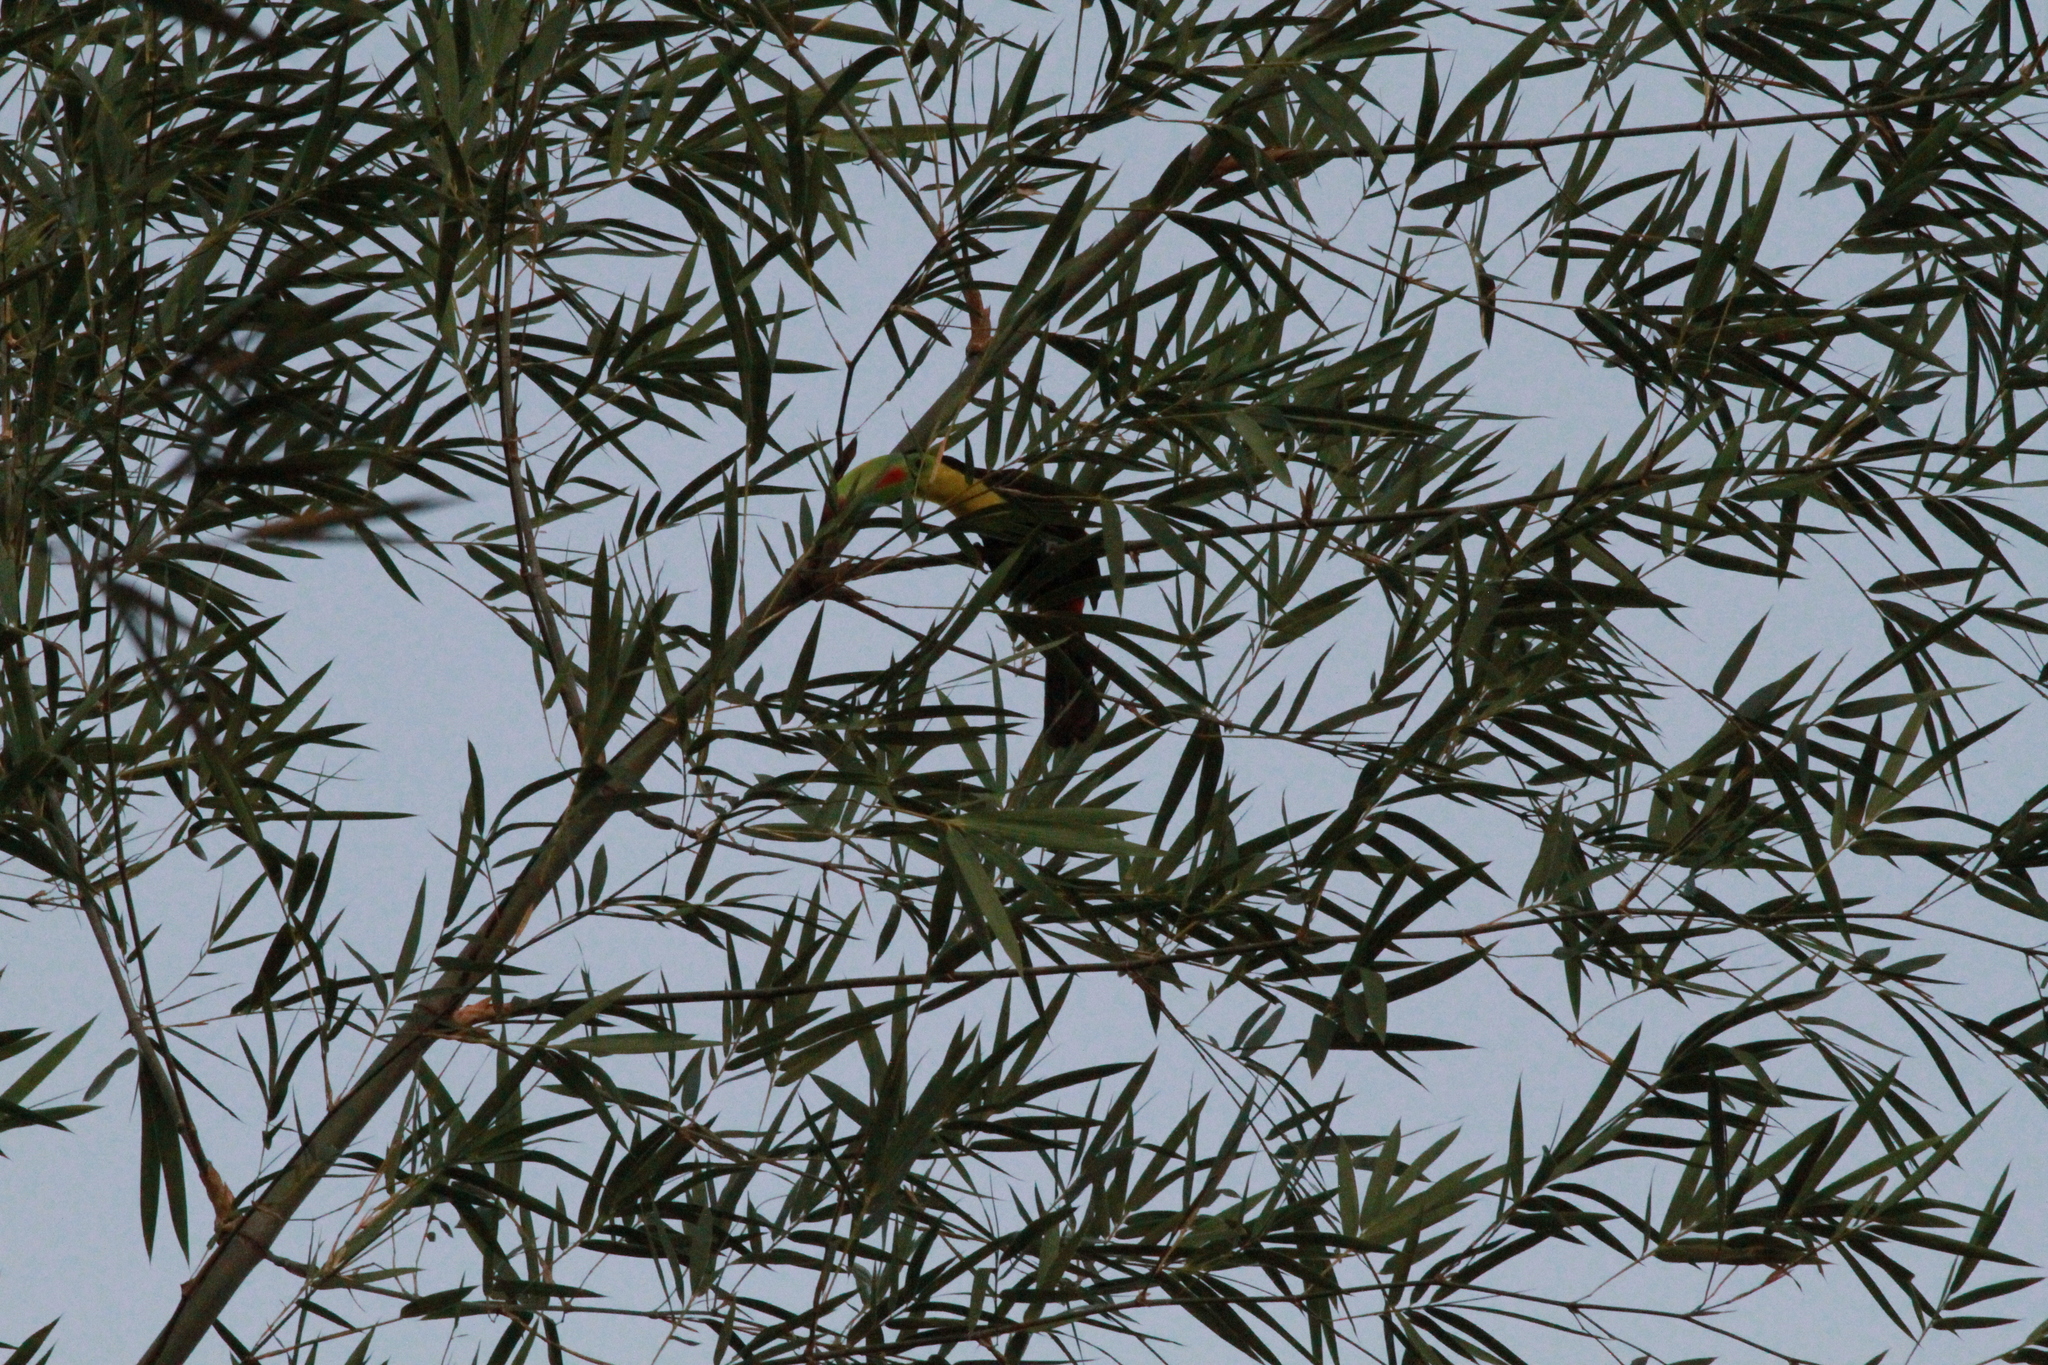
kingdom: Animalia
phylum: Chordata
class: Aves
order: Piciformes
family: Ramphastidae
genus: Ramphastos
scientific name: Ramphastos sulfuratus
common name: Keel-billed toucan
